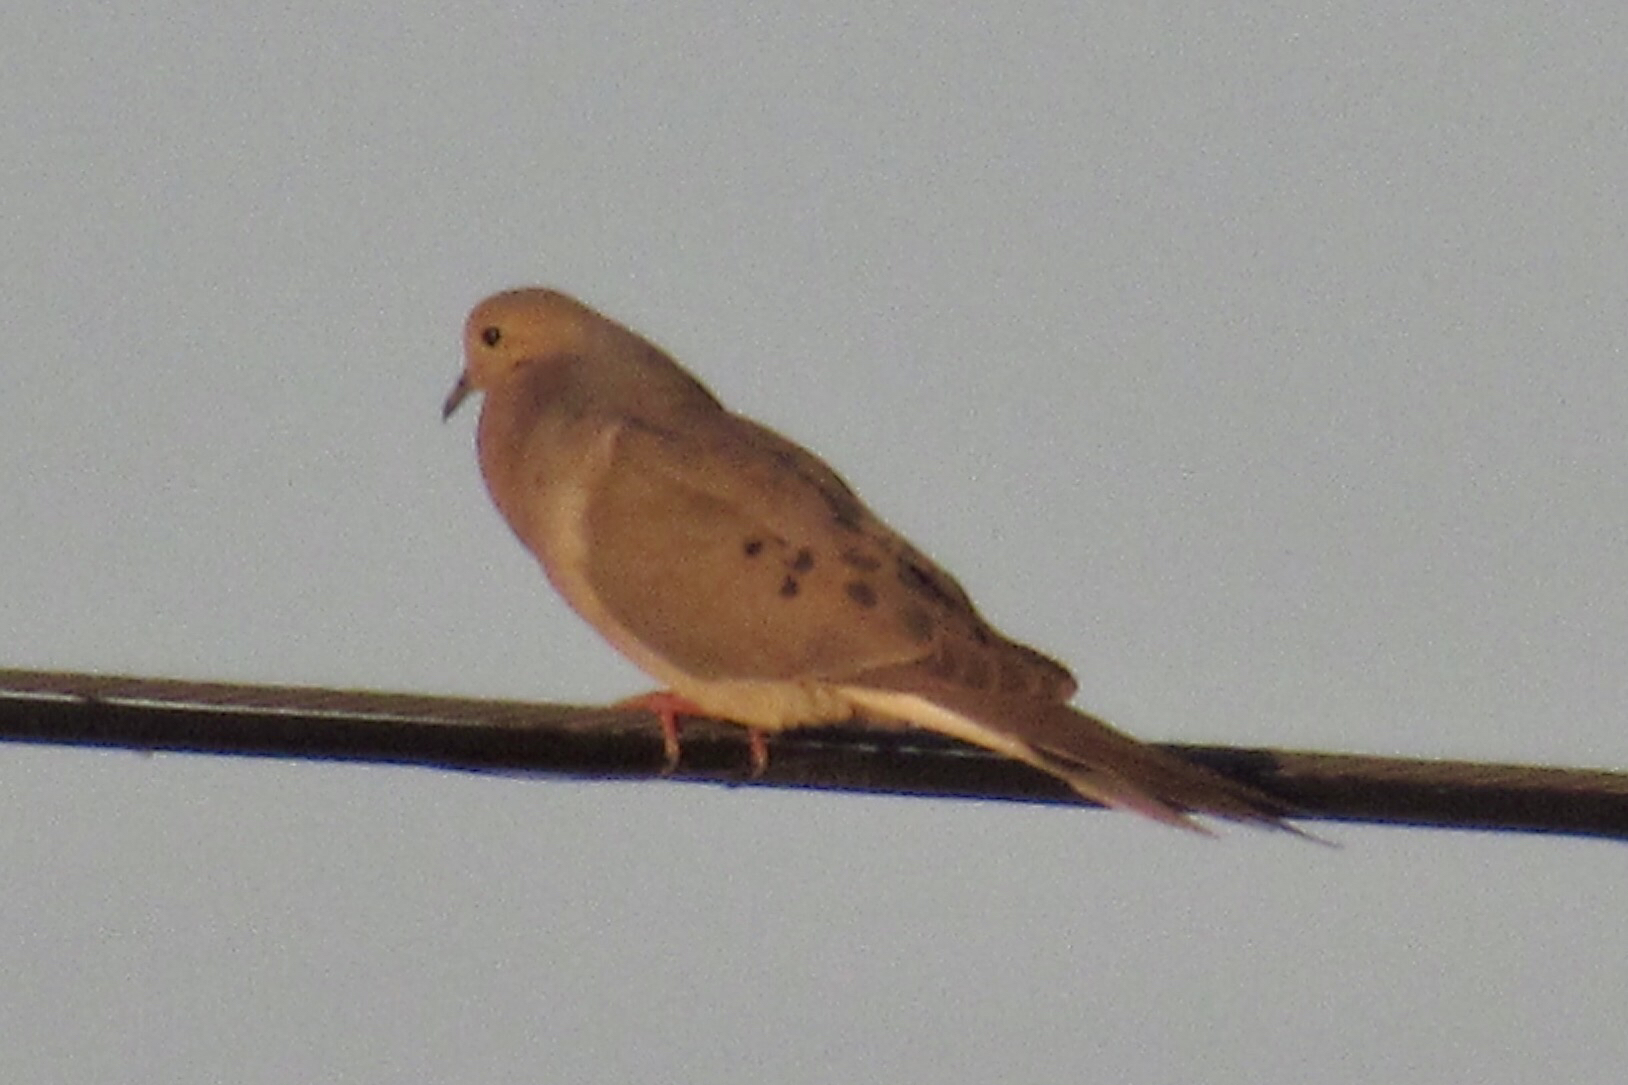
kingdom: Animalia
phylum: Chordata
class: Aves
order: Columbiformes
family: Columbidae
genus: Zenaida
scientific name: Zenaida macroura
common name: Mourning dove
